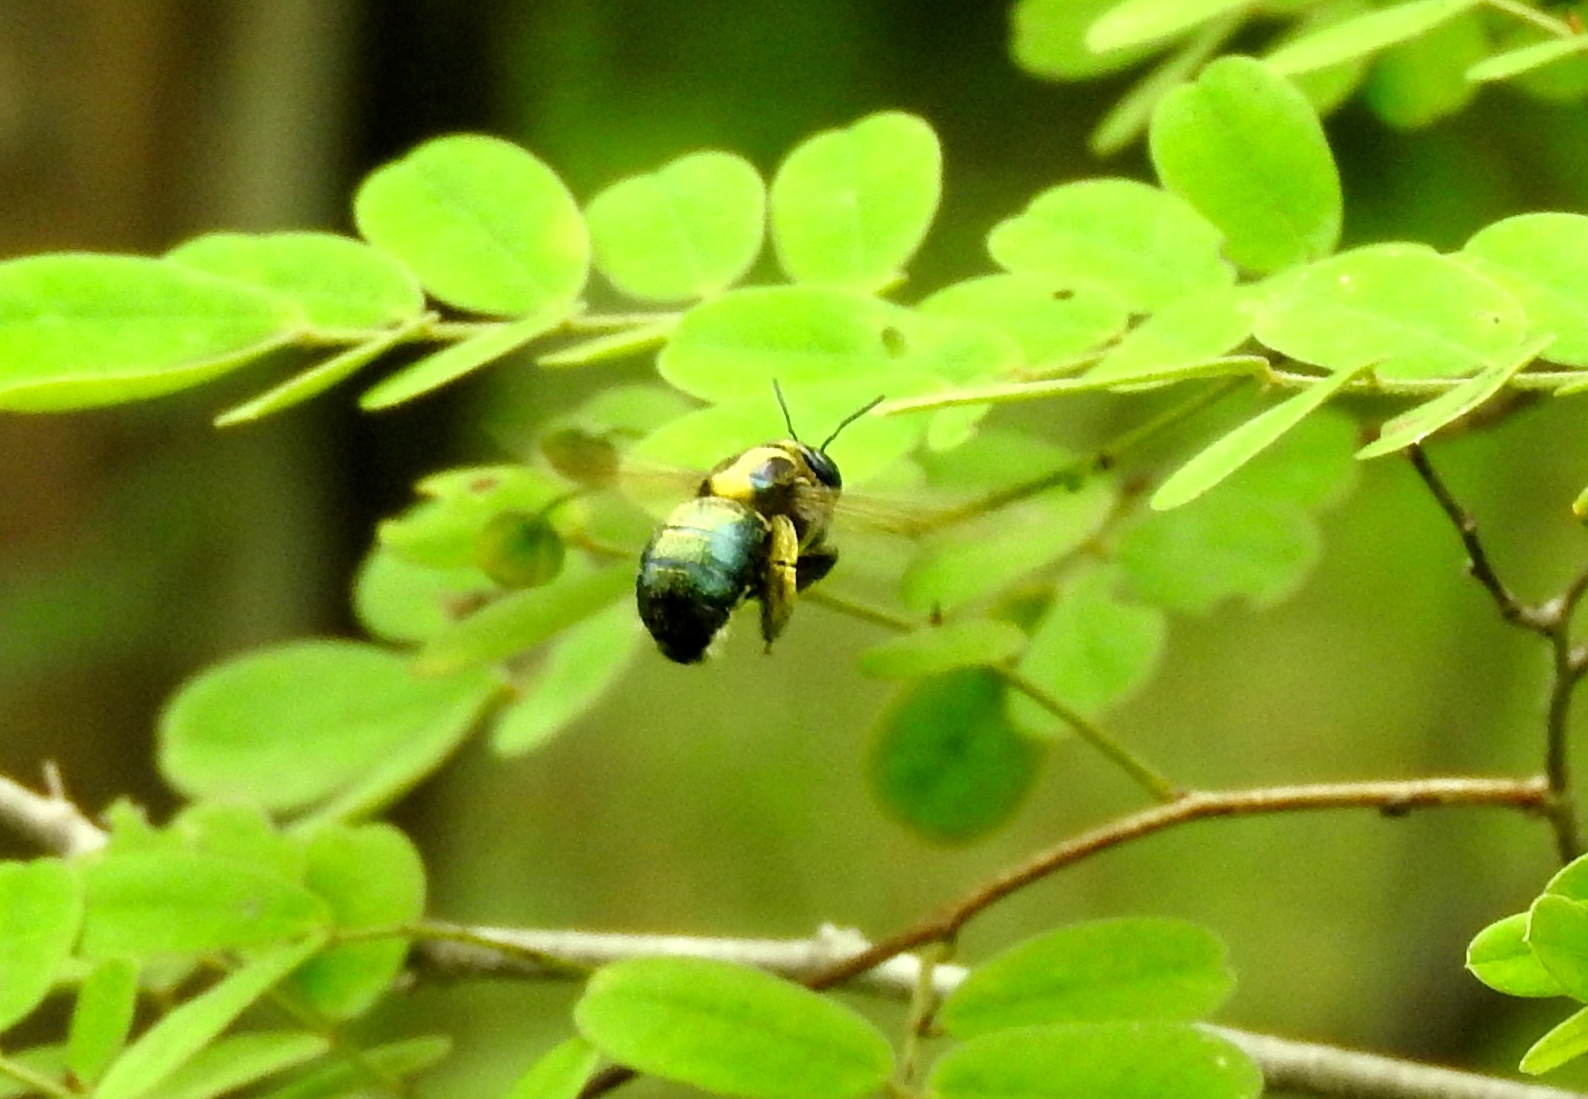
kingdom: Animalia
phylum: Arthropoda
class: Insecta
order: Hymenoptera
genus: Schonnherria
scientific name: Schonnherria
